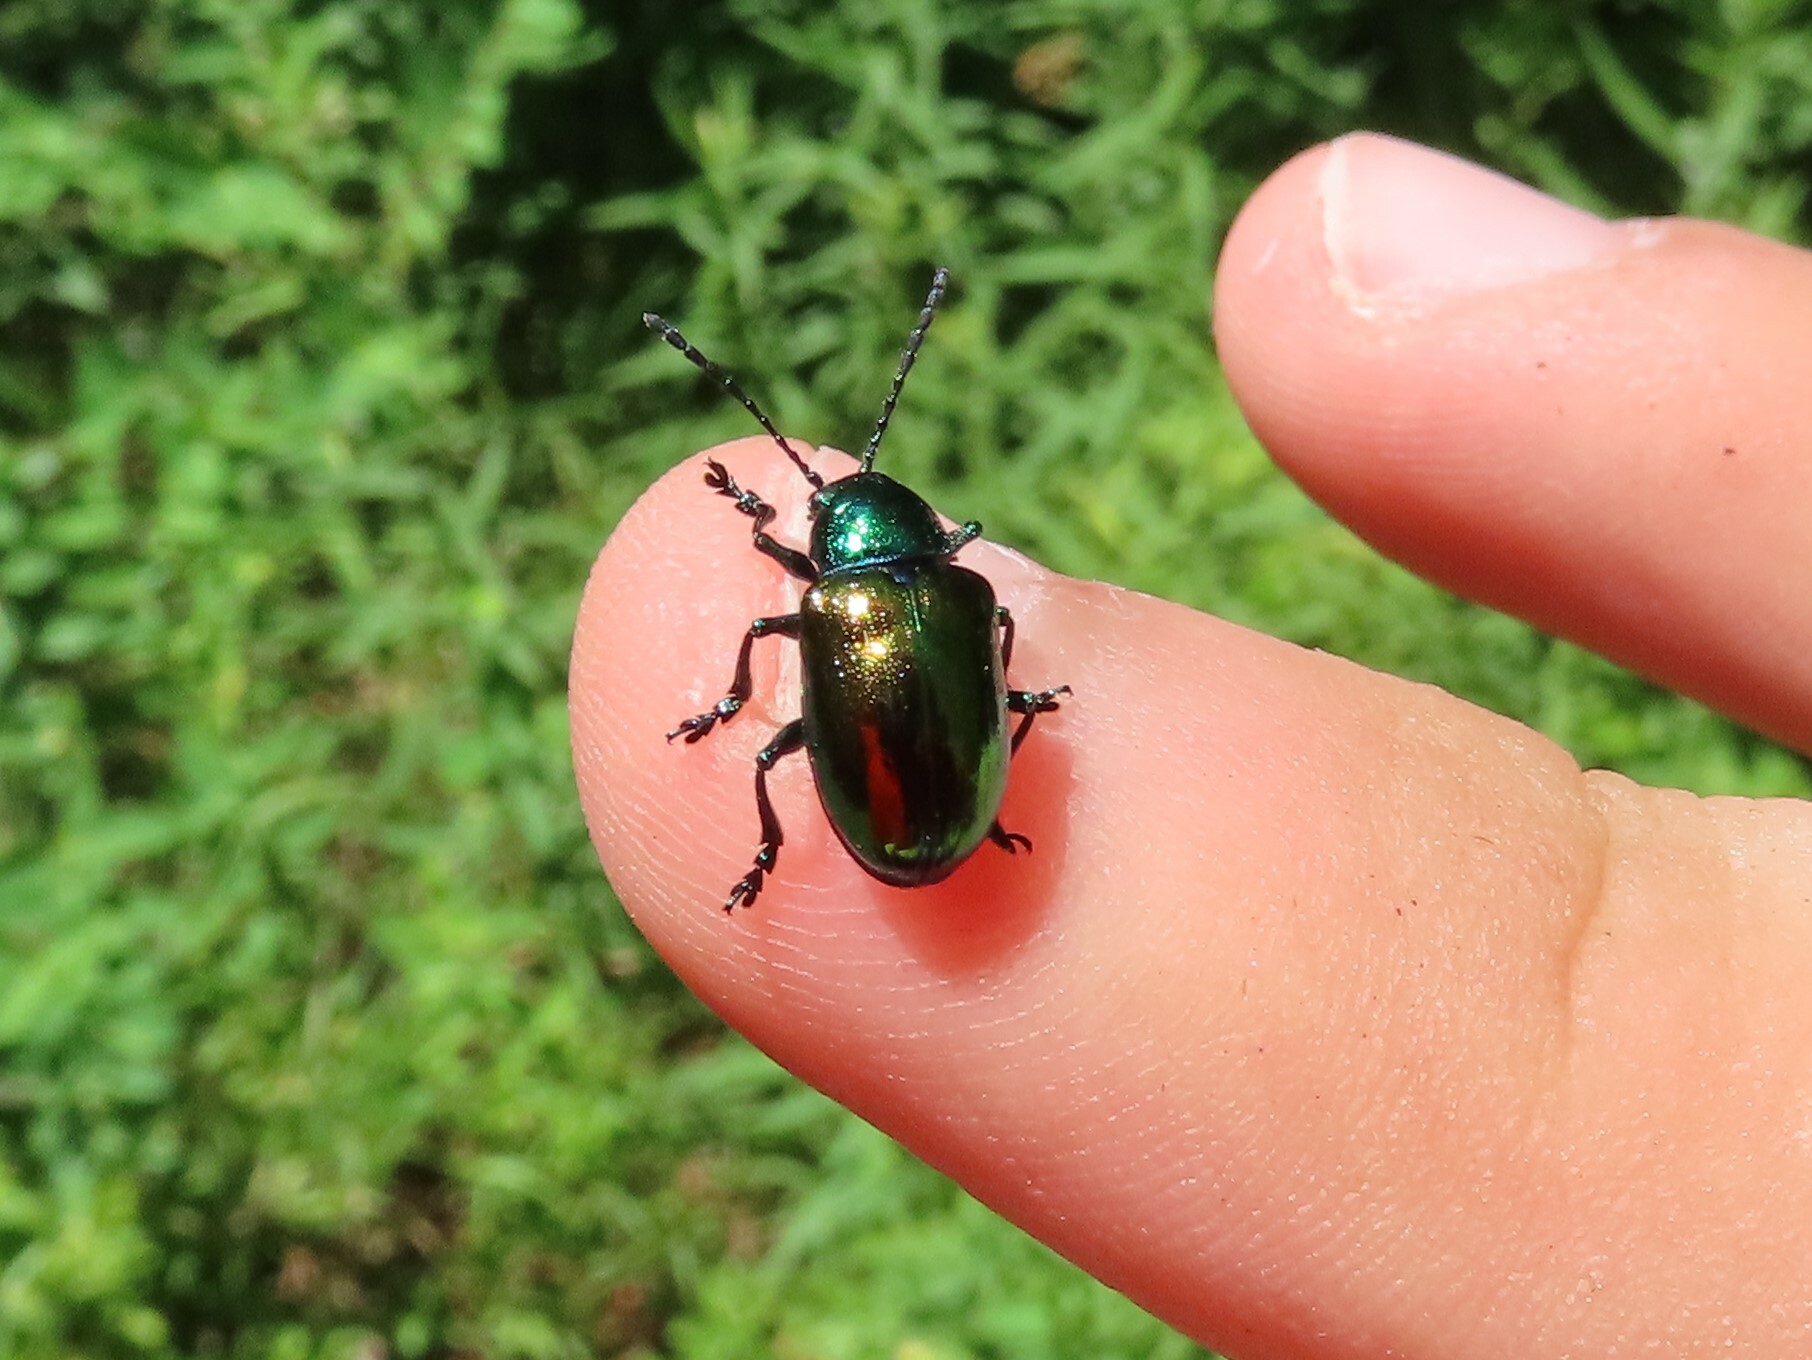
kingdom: Animalia
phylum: Arthropoda
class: Insecta
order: Coleoptera
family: Chrysomelidae
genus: Chrysochus
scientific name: Chrysochus auratus
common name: Dogbane leaf beetle
